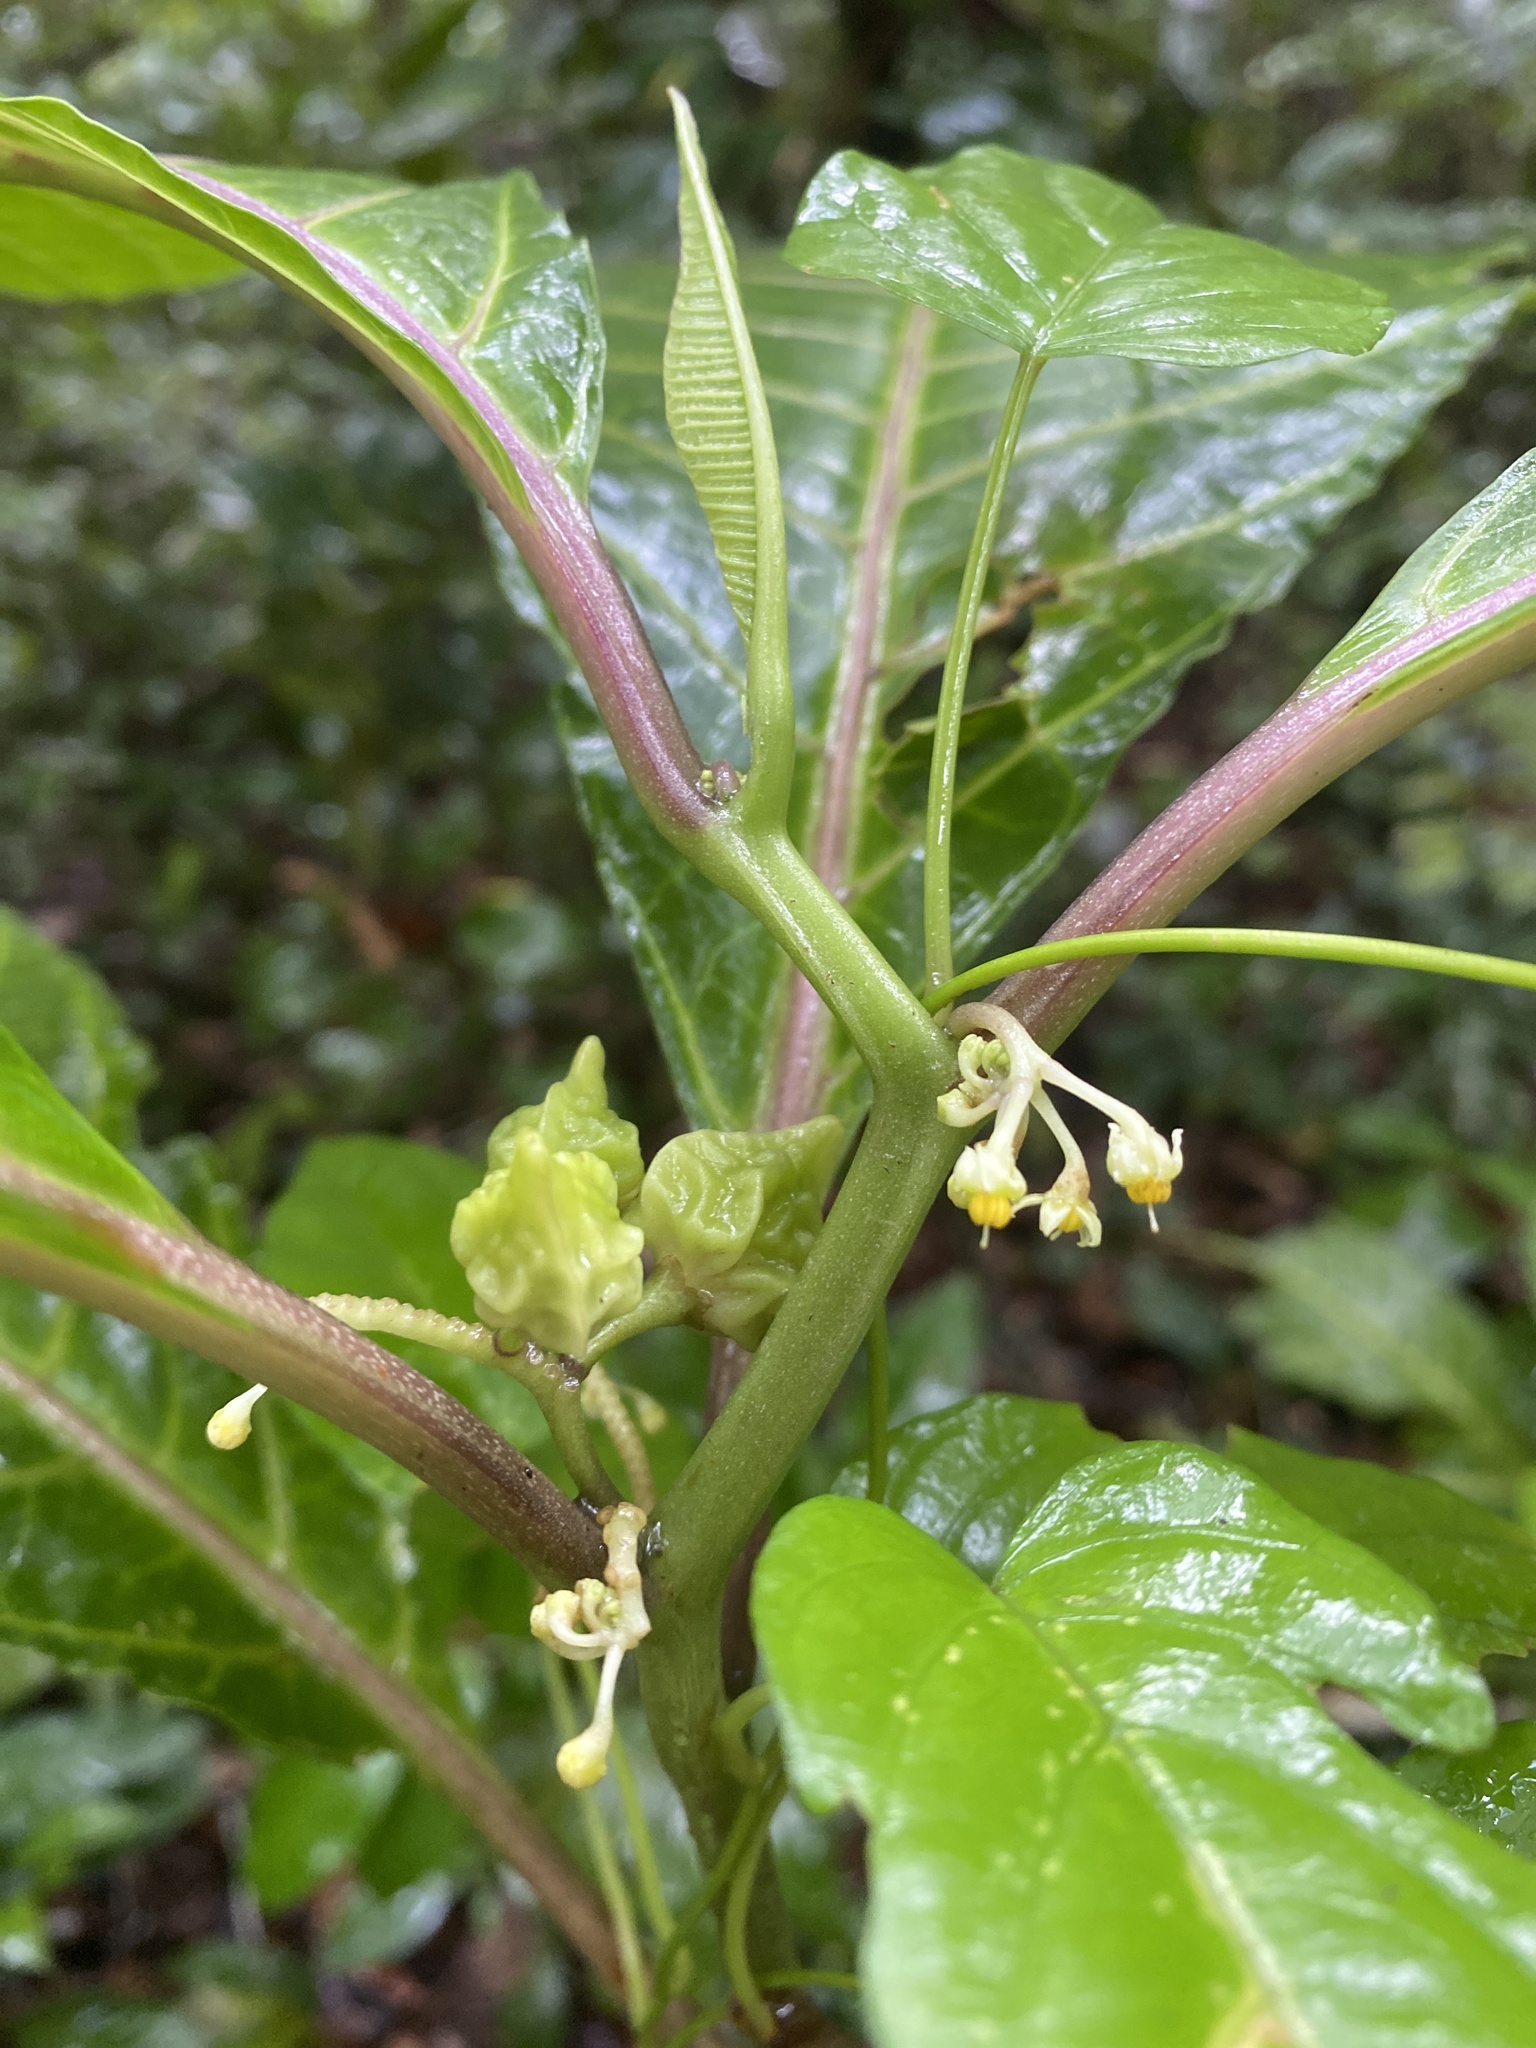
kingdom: Plantae
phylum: Tracheophyta
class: Magnoliopsida
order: Solanales
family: Solanaceae
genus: Solanum
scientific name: Solanum anceps
